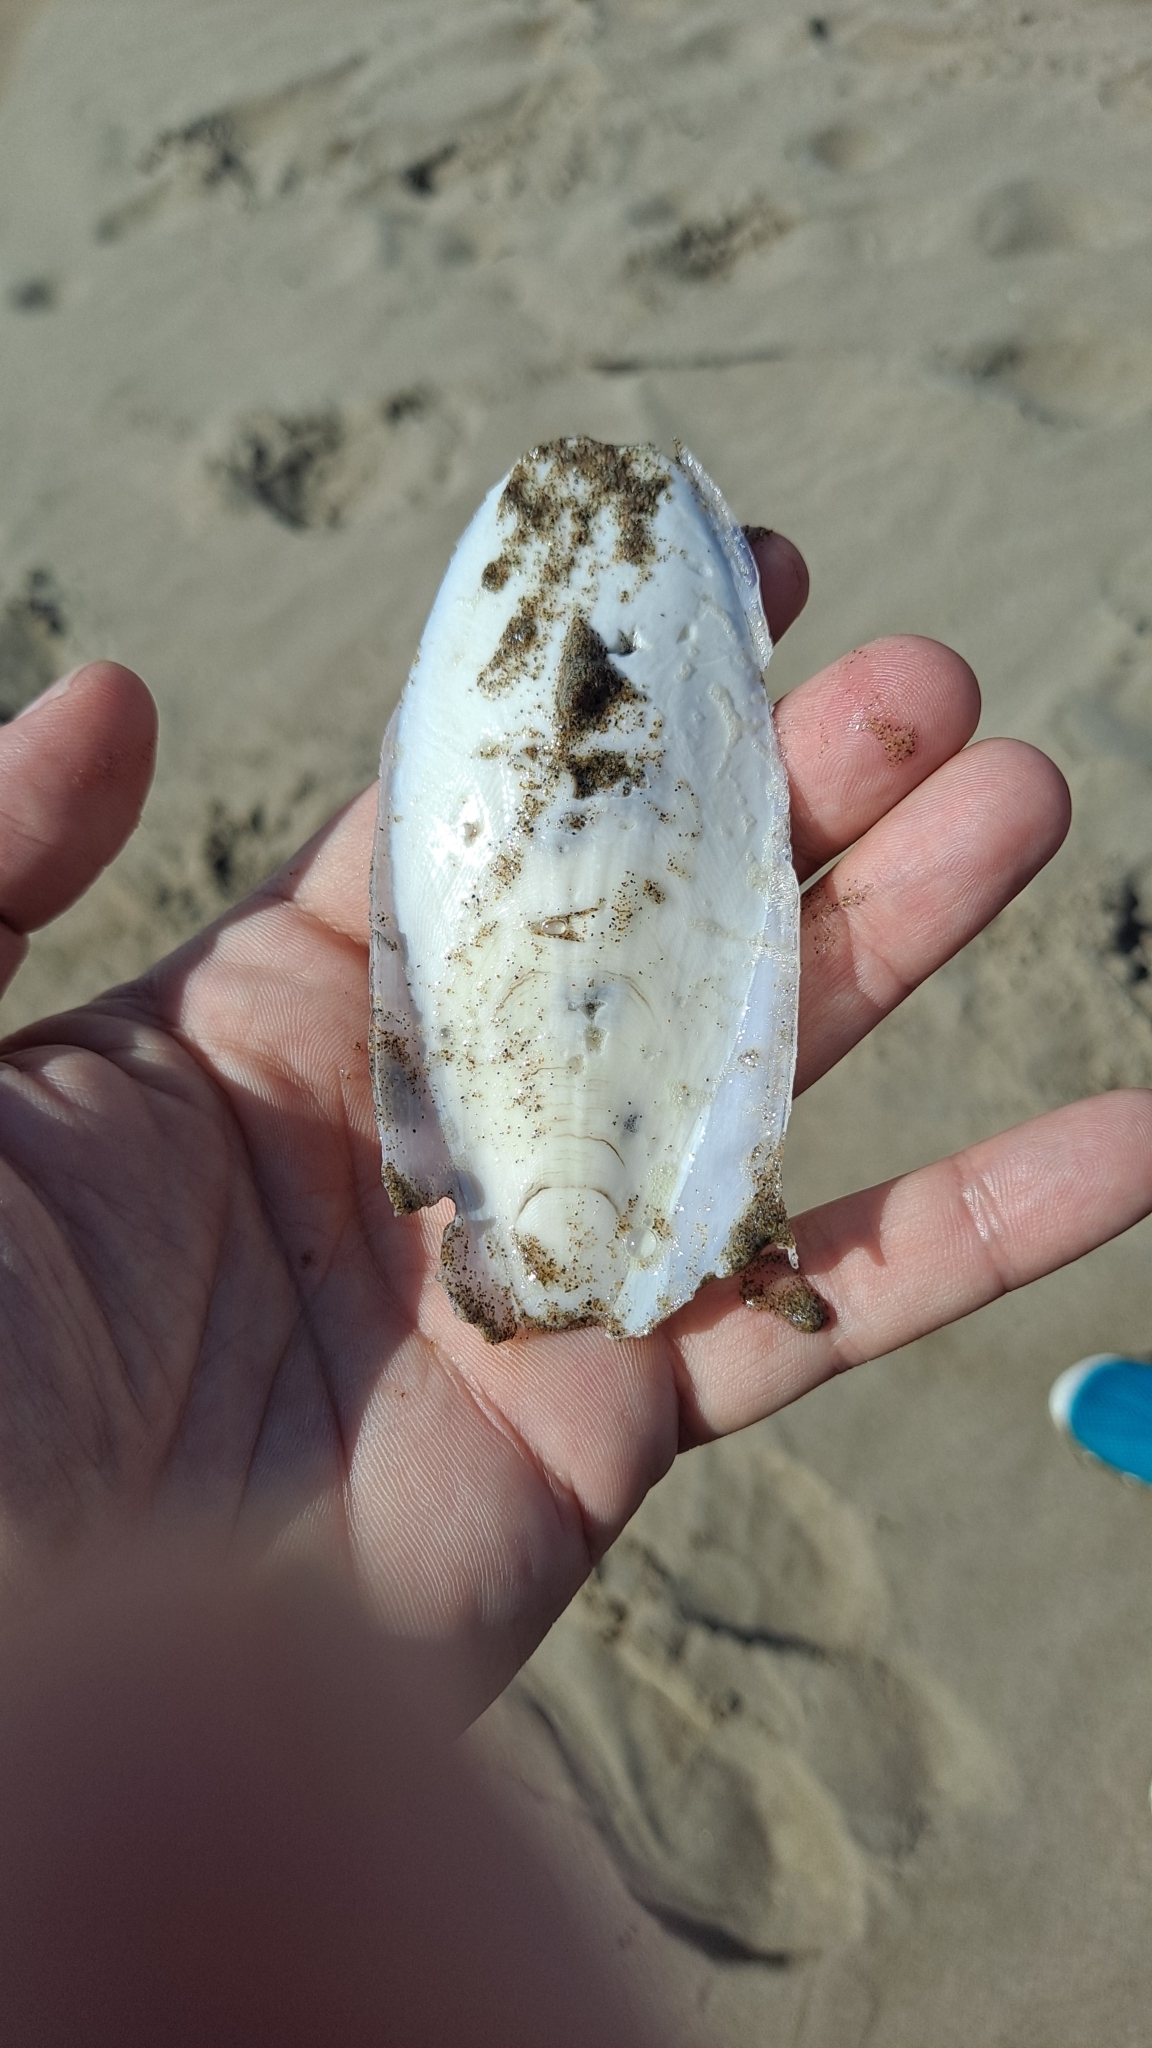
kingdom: Animalia
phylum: Mollusca
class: Cephalopoda
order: Sepiida
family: Sepiidae
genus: Sepia
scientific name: Sepia officinalis
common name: Common cuttlefish
